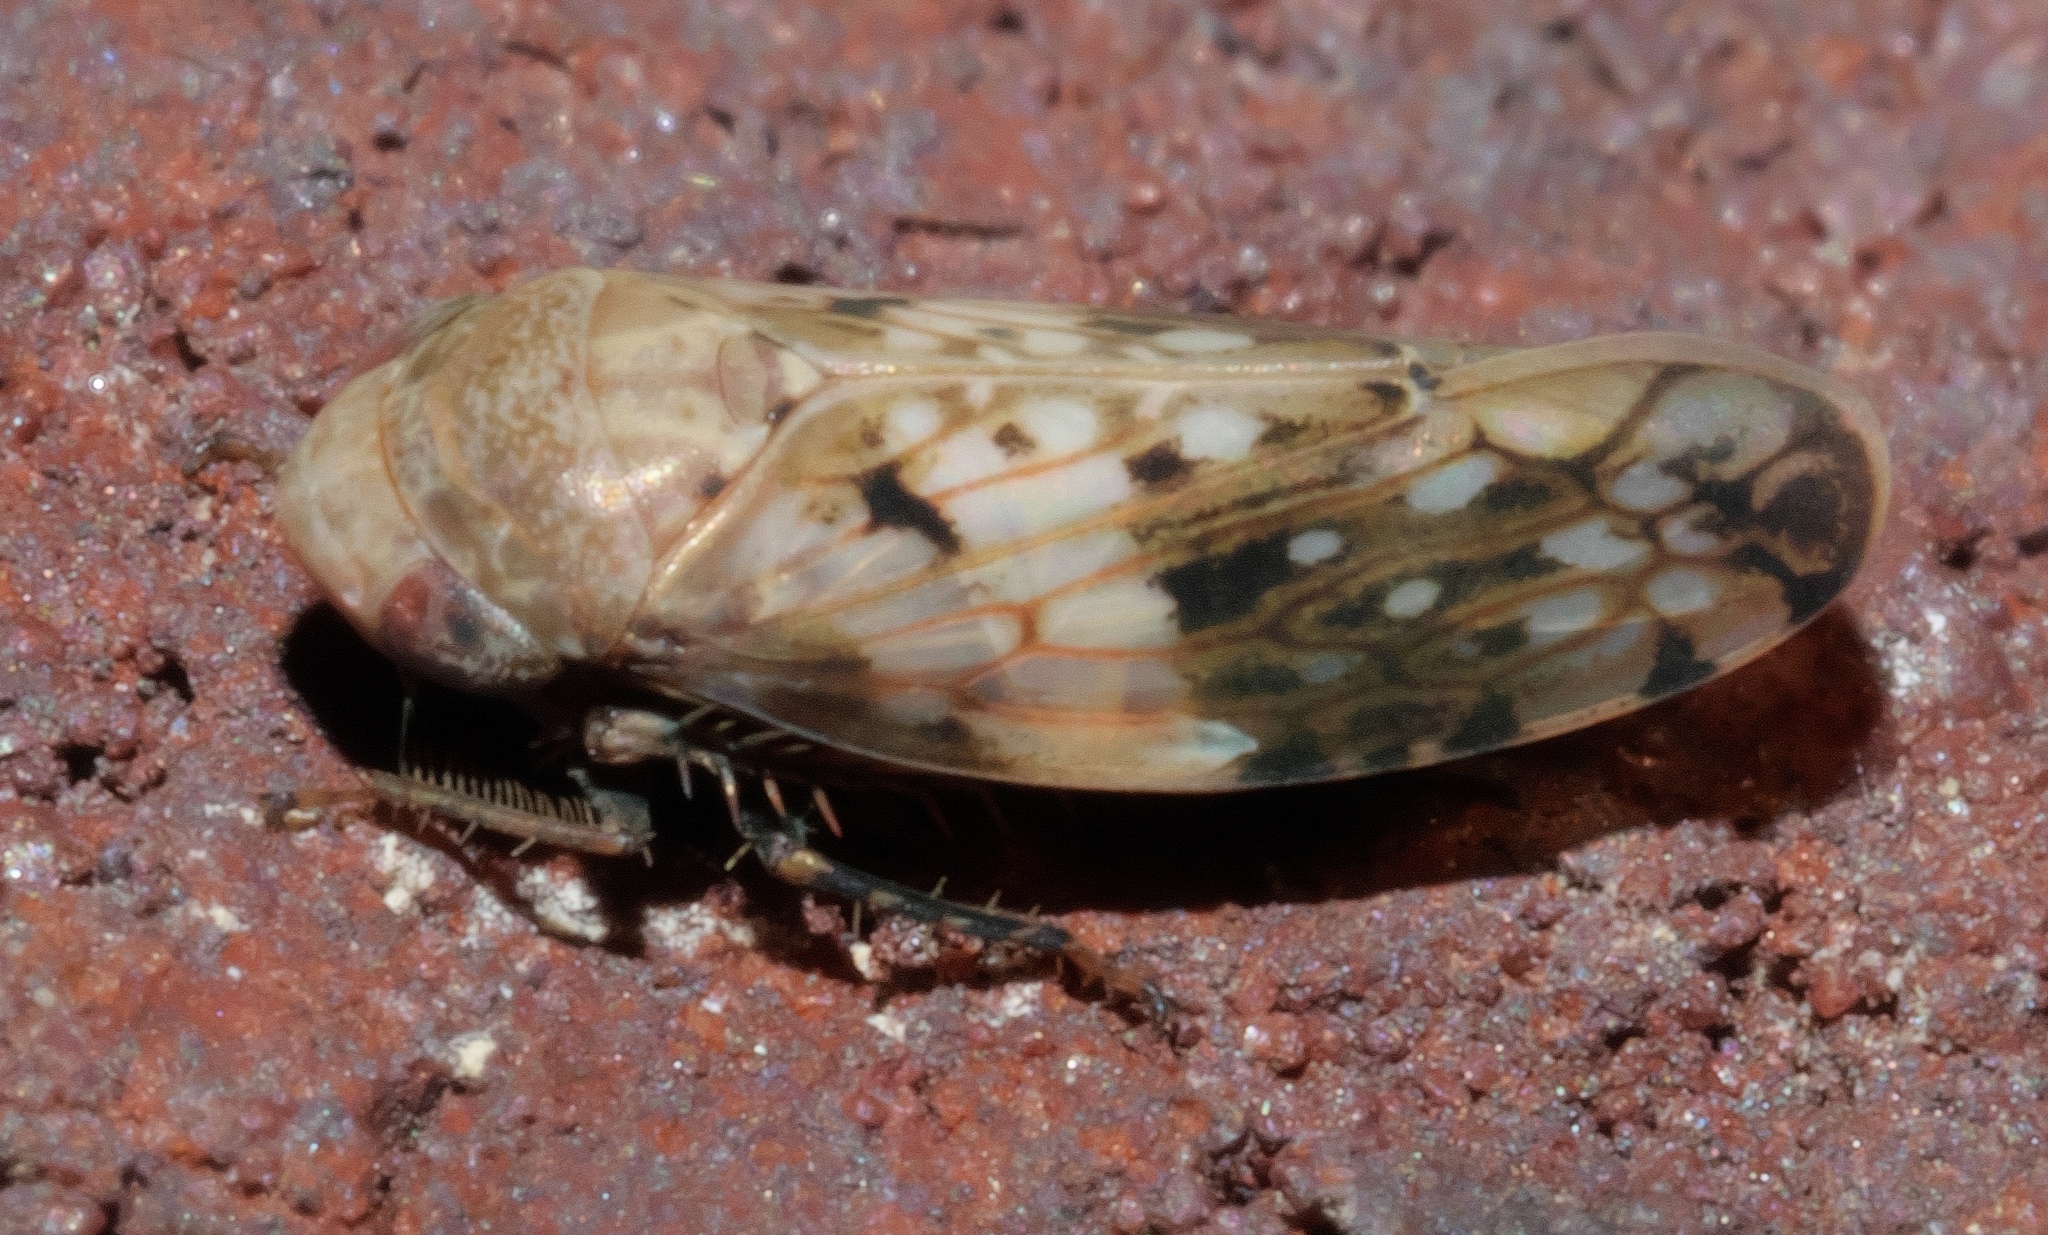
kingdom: Animalia
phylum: Arthropoda
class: Insecta
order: Hemiptera
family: Cicadellidae
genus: Menosoma
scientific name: Menosoma cinctum
